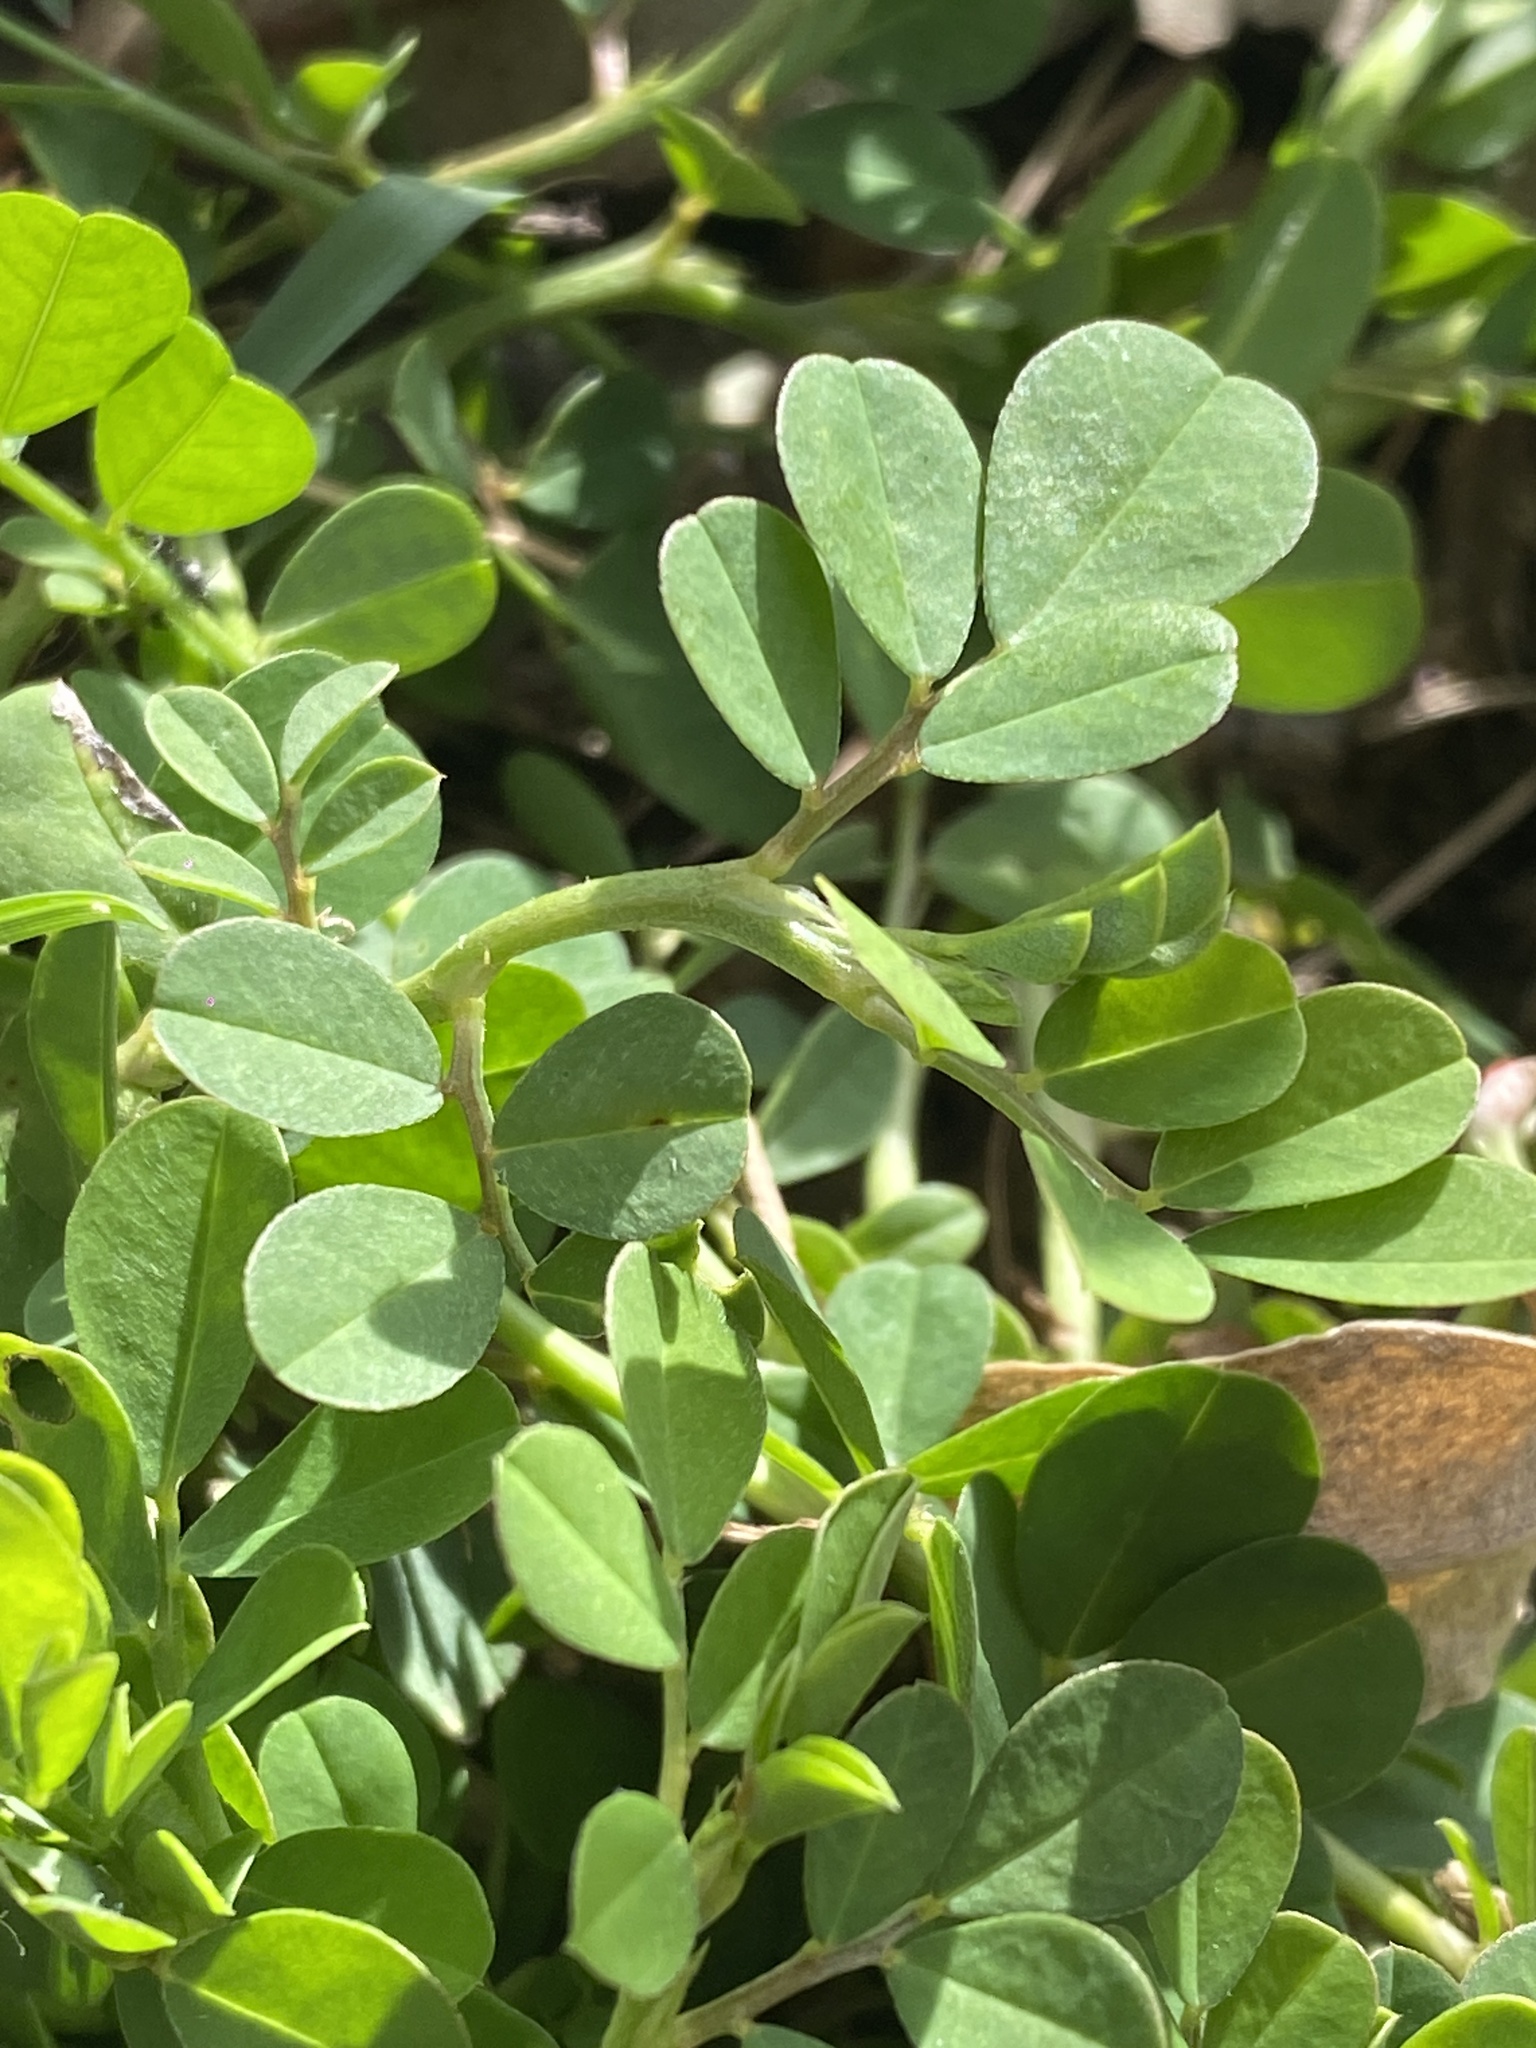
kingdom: Plantae
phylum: Tracheophyta
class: Magnoliopsida
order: Fabales
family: Fabaceae
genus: Indigofera
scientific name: Indigofera spicata
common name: Creeping indigo
